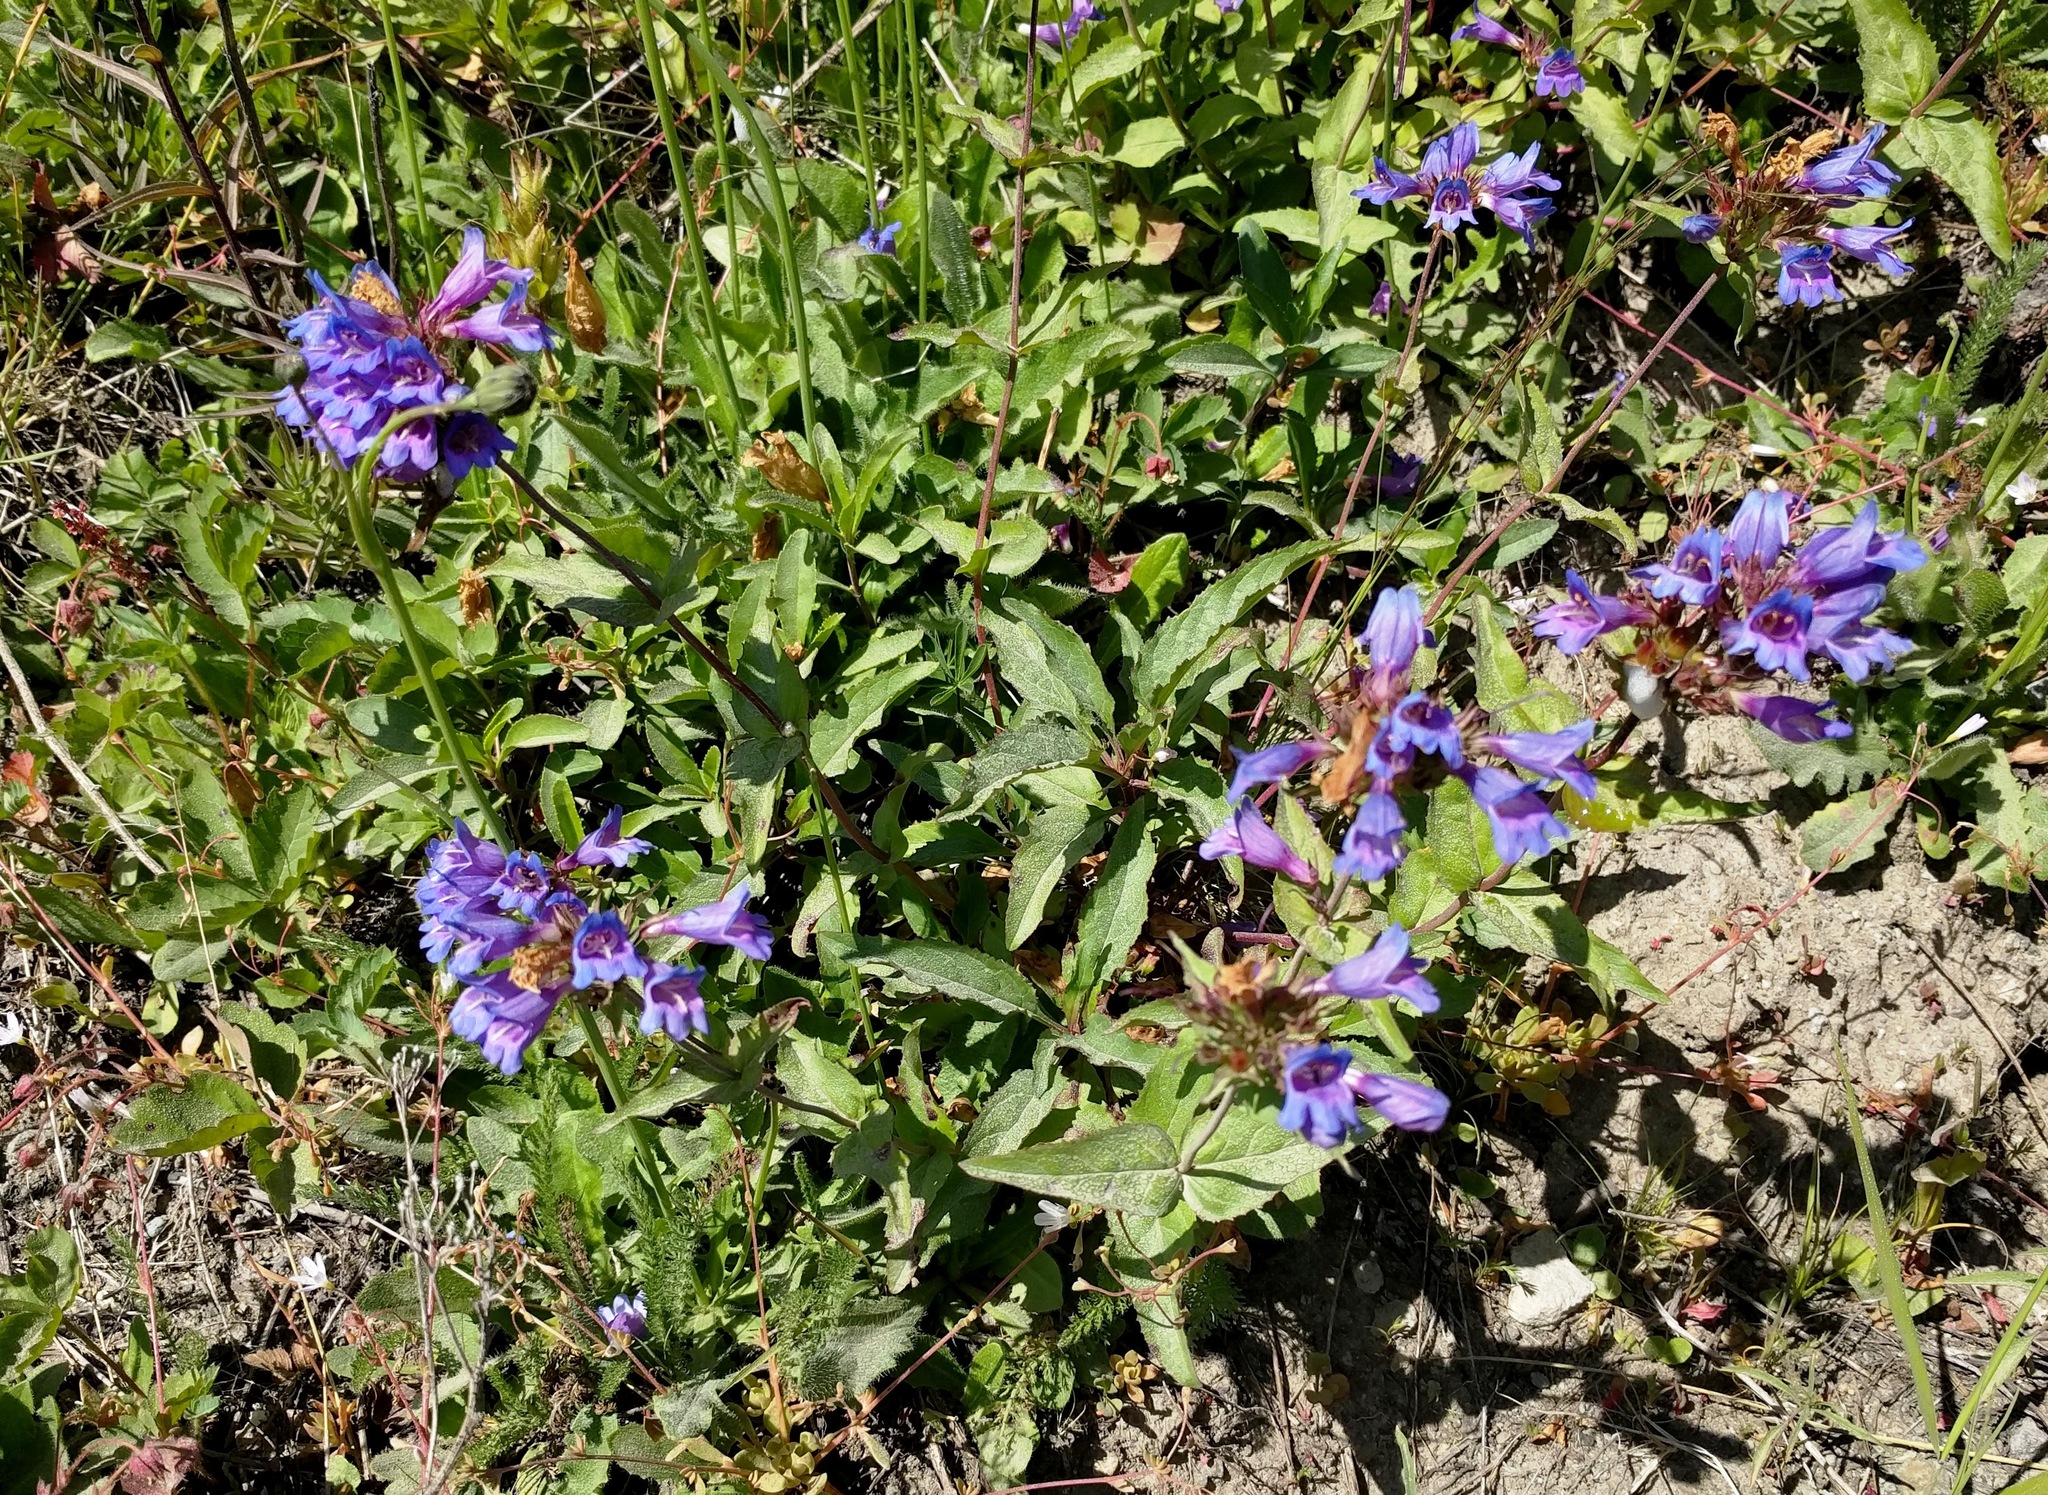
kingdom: Plantae
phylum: Tracheophyta
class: Magnoliopsida
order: Lamiales
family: Plantaginaceae
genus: Penstemon
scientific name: Penstemon serrulatus
